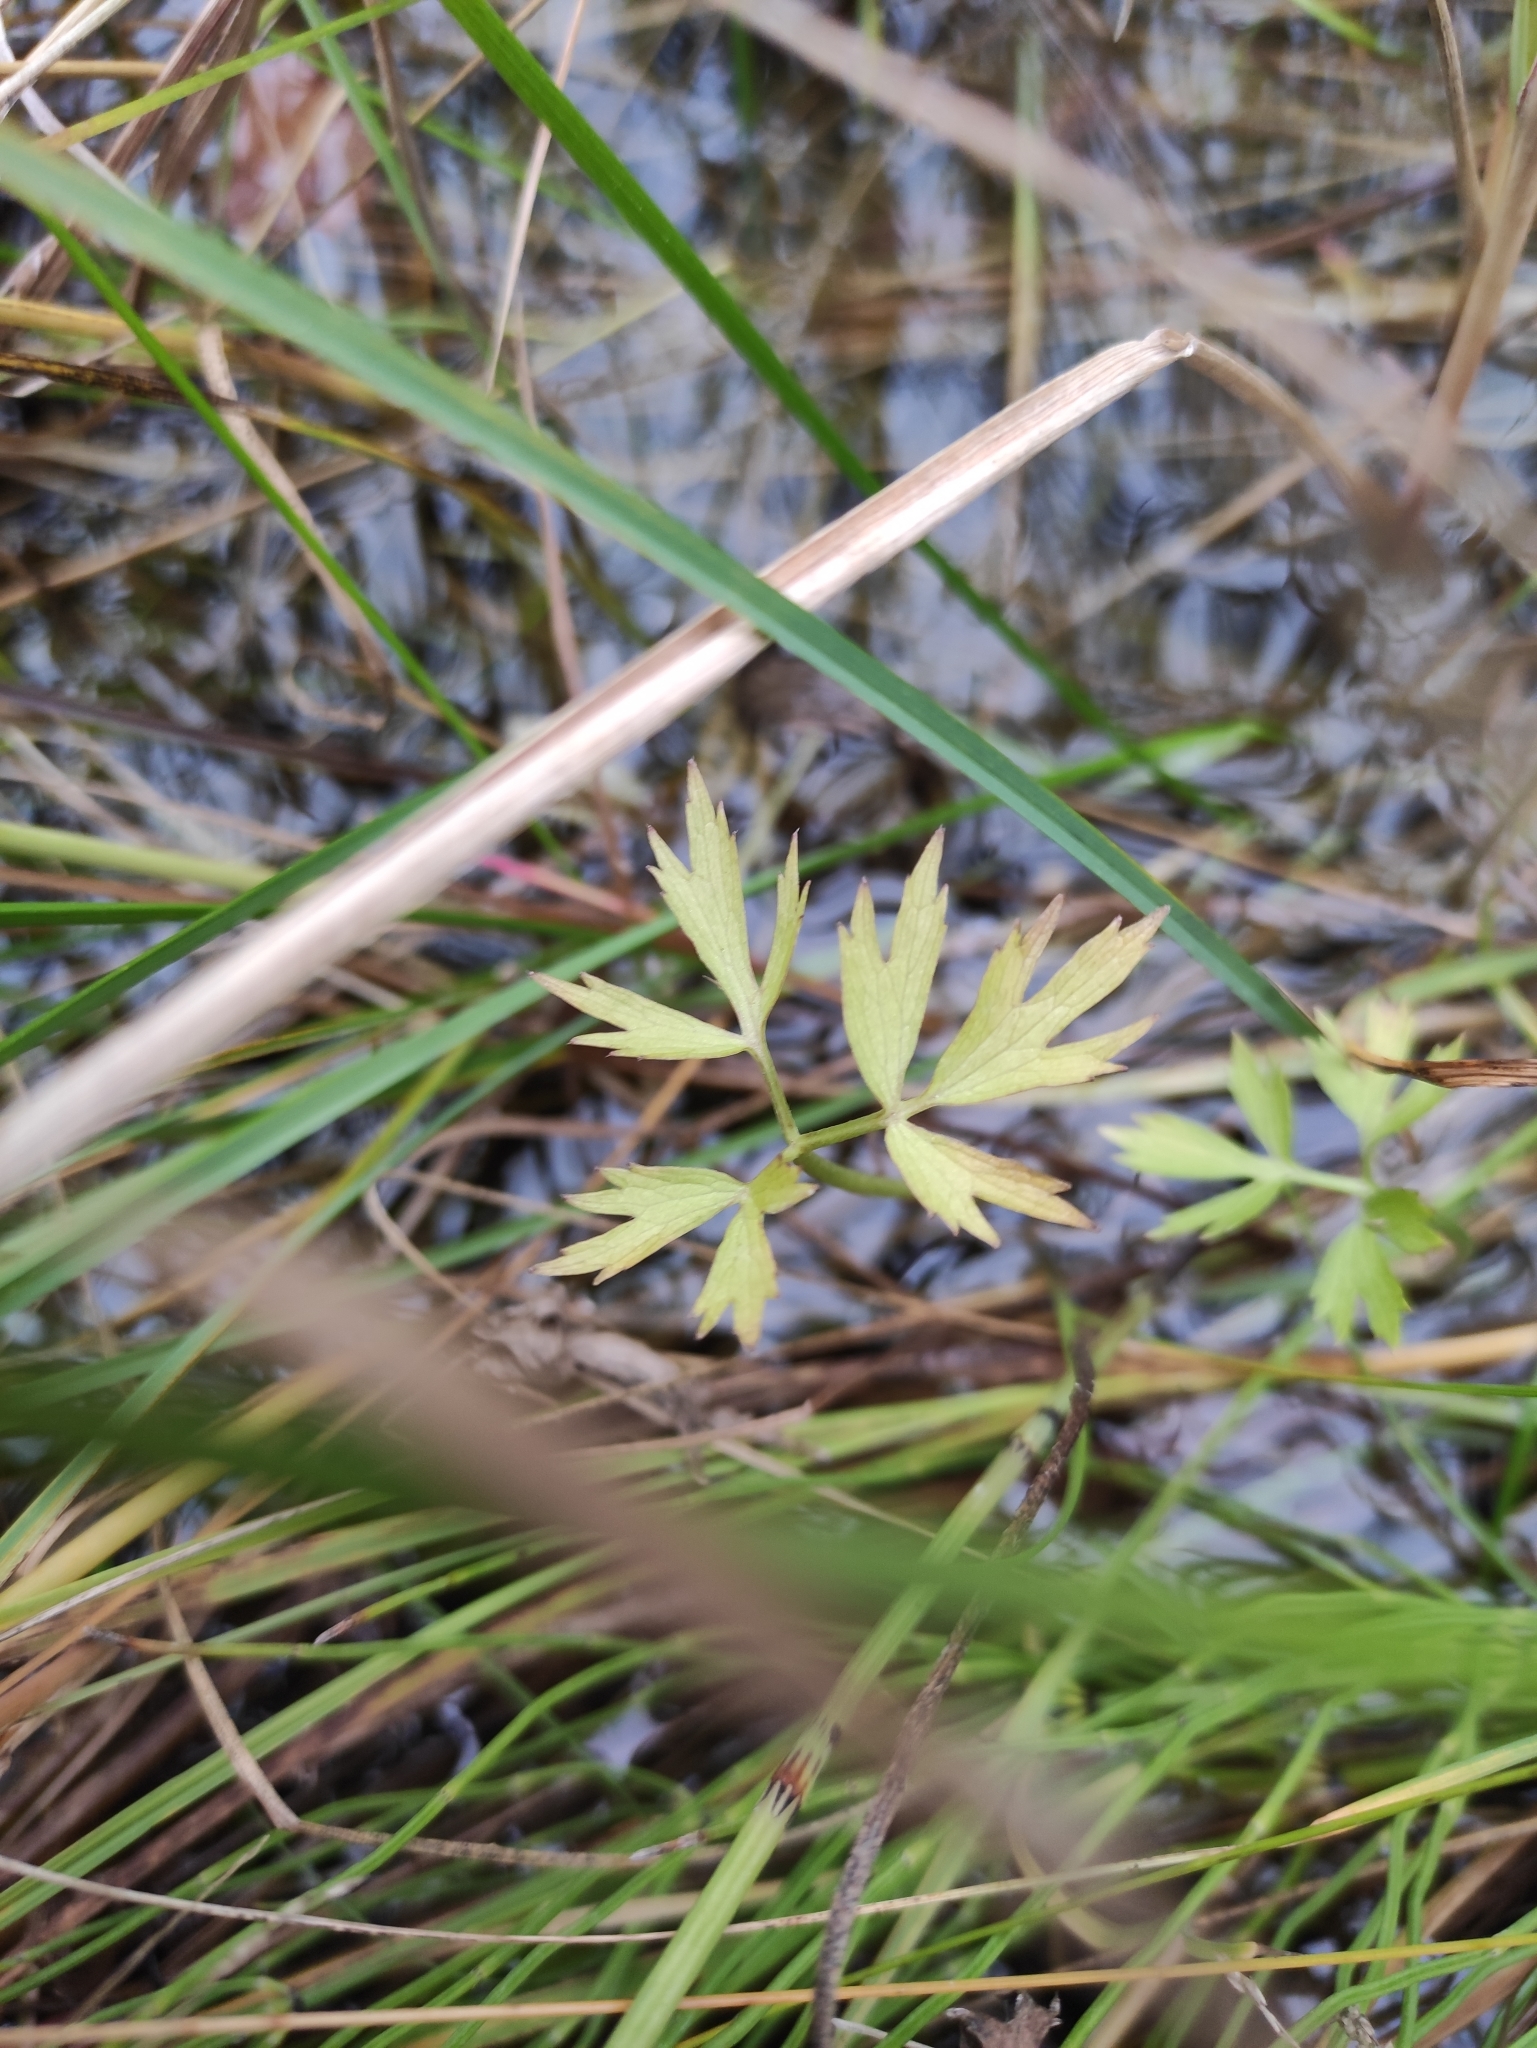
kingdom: Plantae
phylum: Tracheophyta
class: Magnoliopsida
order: Ranunculales
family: Ranunculaceae
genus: Ranunculus
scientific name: Ranunculus repens
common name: Creeping buttercup
